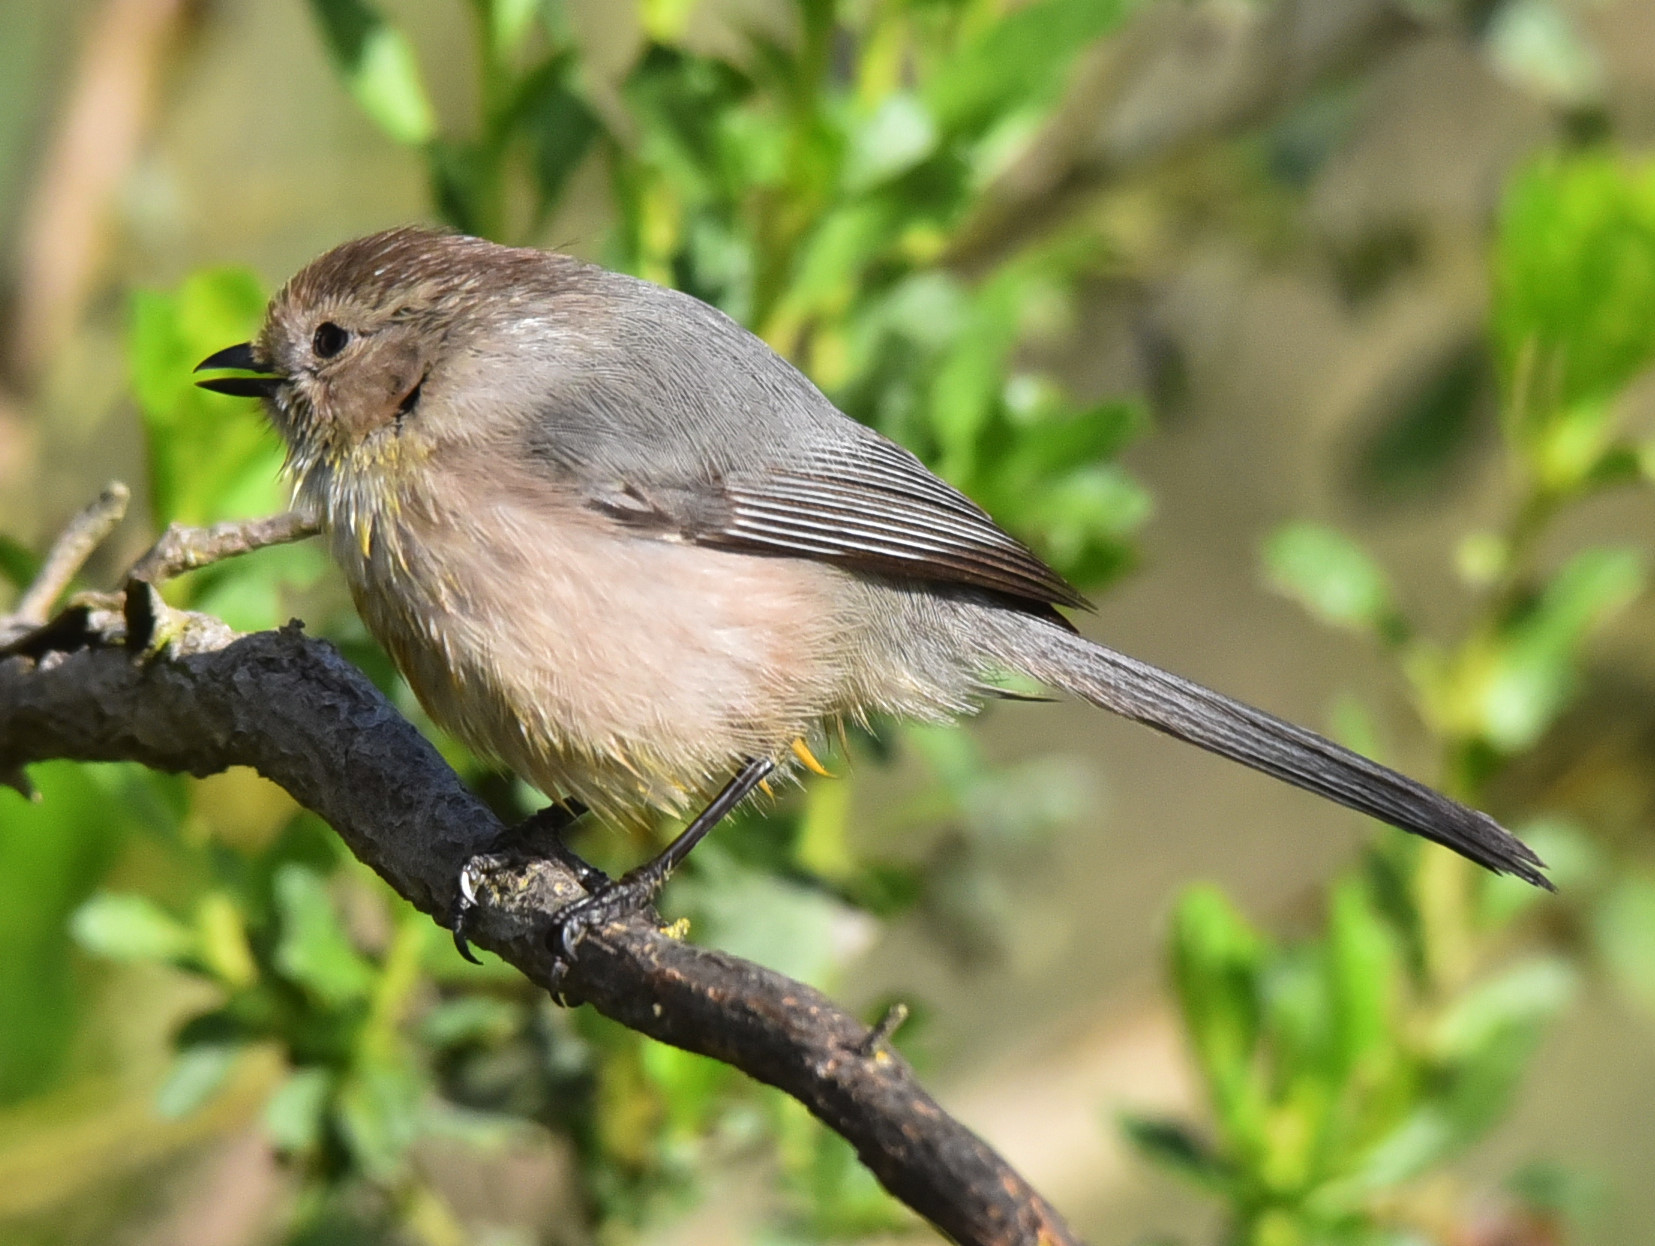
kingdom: Animalia
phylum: Chordata
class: Aves
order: Passeriformes
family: Aegithalidae
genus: Psaltriparus
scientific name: Psaltriparus minimus
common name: American bushtit
